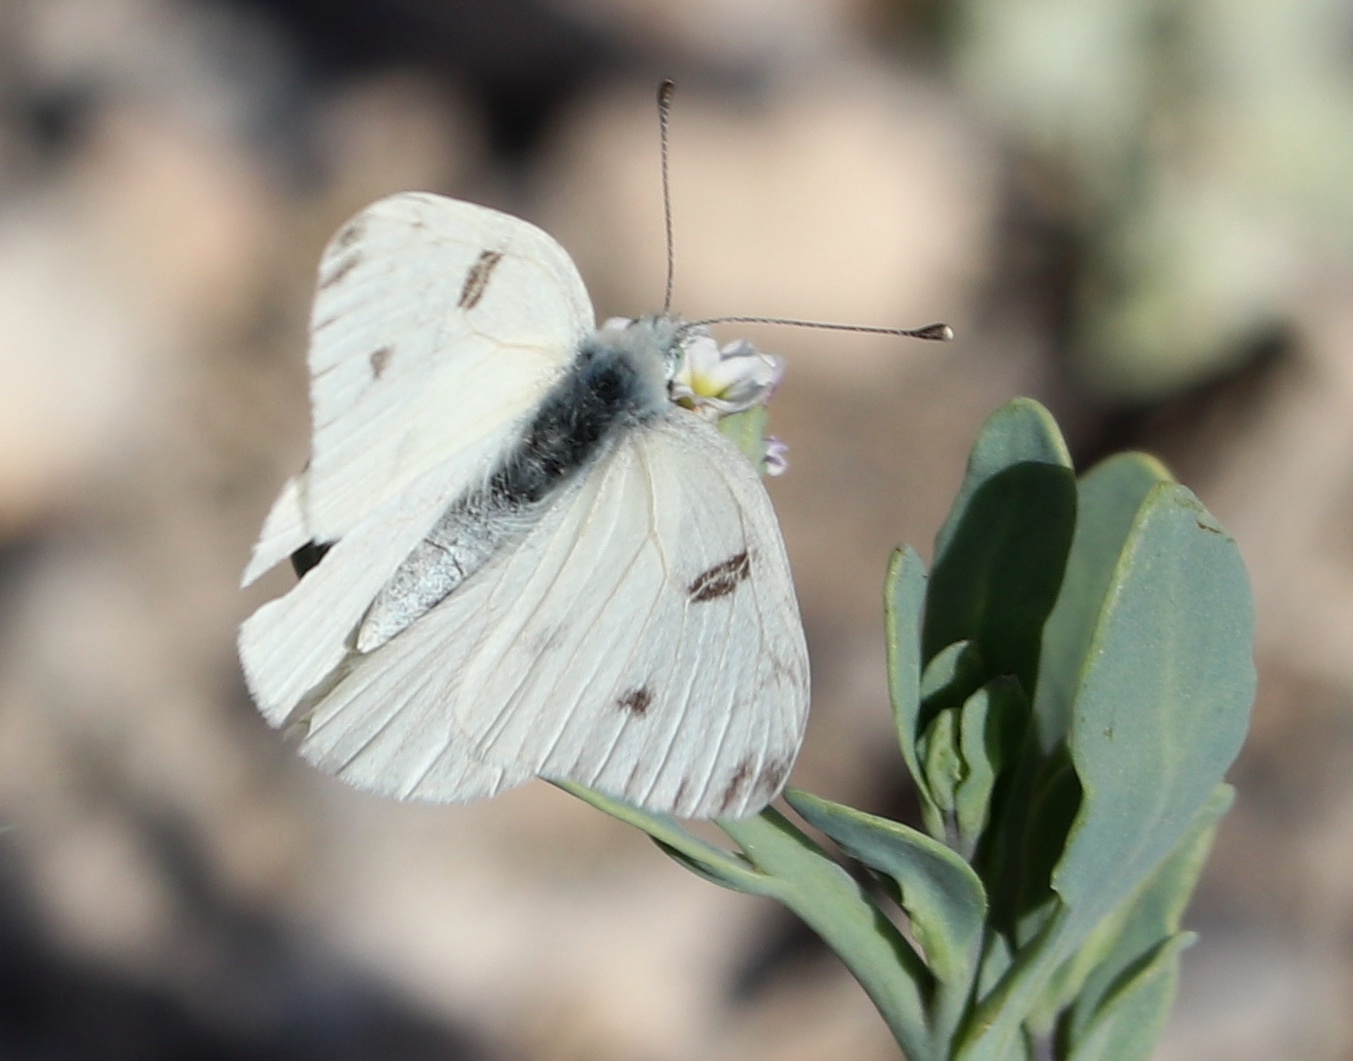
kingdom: Animalia
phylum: Arthropoda
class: Insecta
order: Lepidoptera
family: Pieridae
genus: Pontia
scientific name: Pontia protodice
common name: Checkered white
